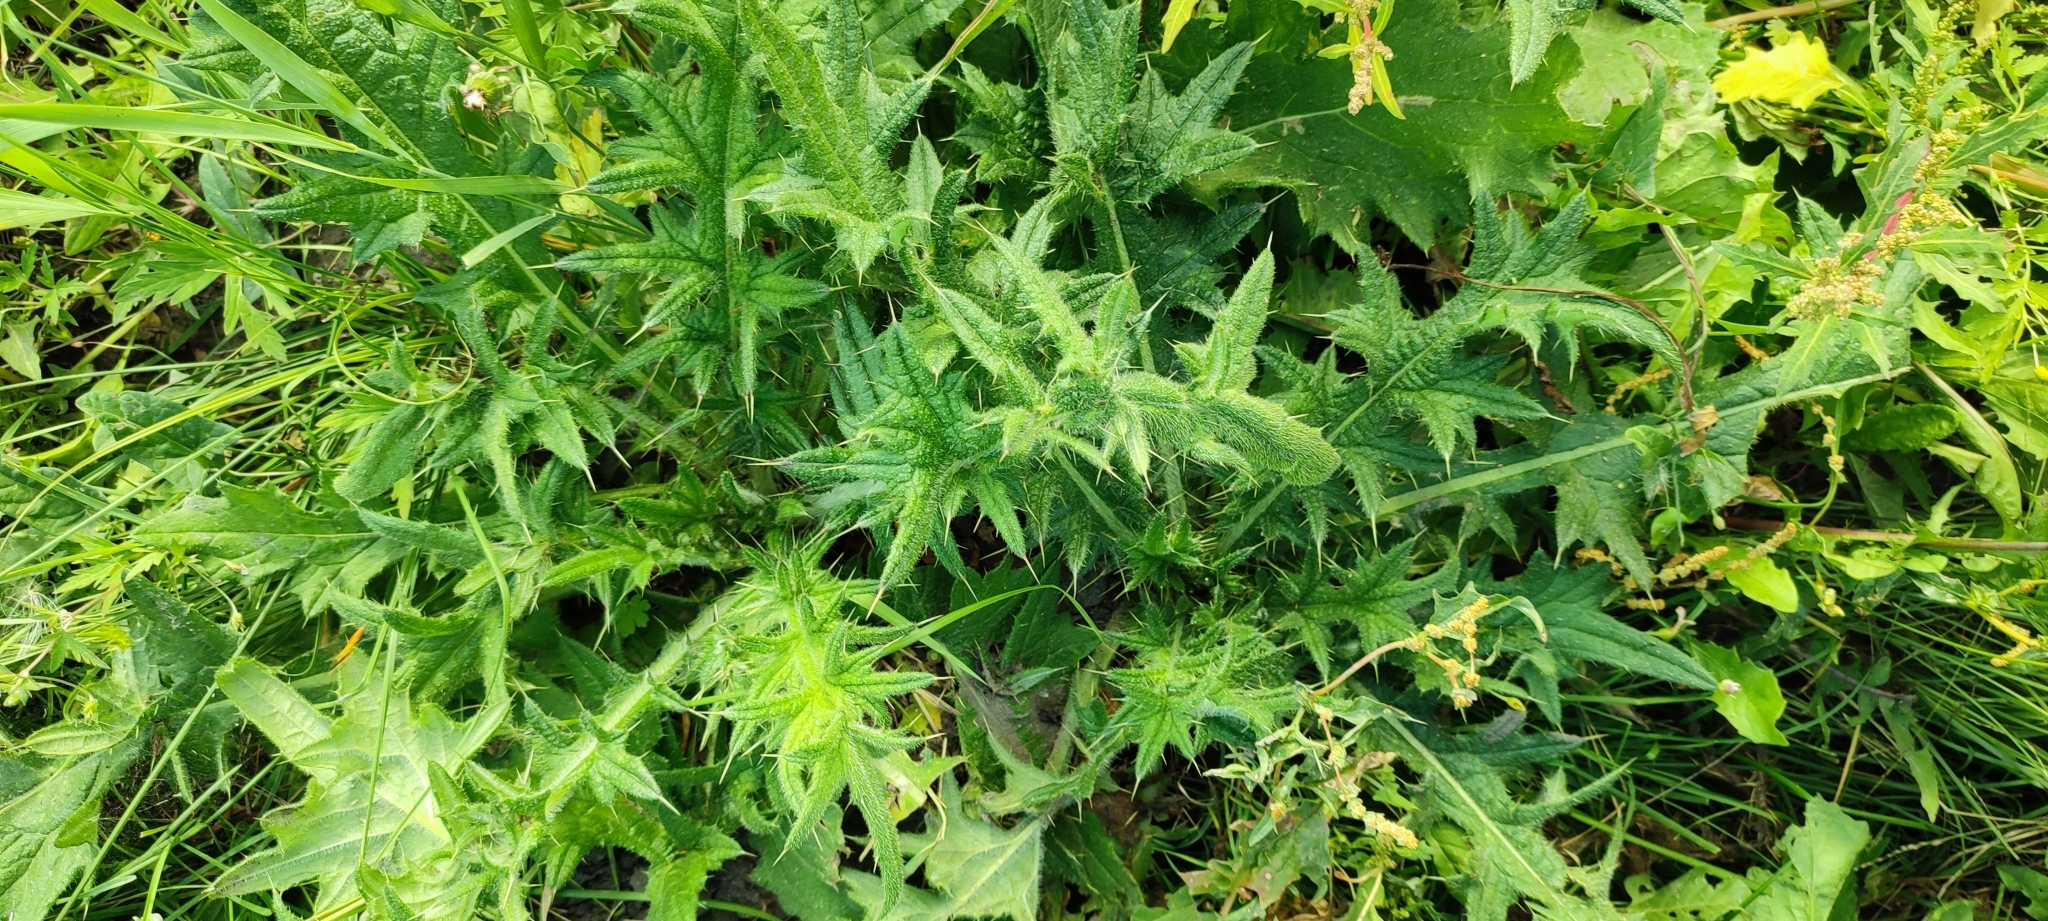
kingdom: Plantae
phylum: Tracheophyta
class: Magnoliopsida
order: Asterales
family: Asteraceae
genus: Cirsium
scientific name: Cirsium vulgare
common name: Bull thistle
